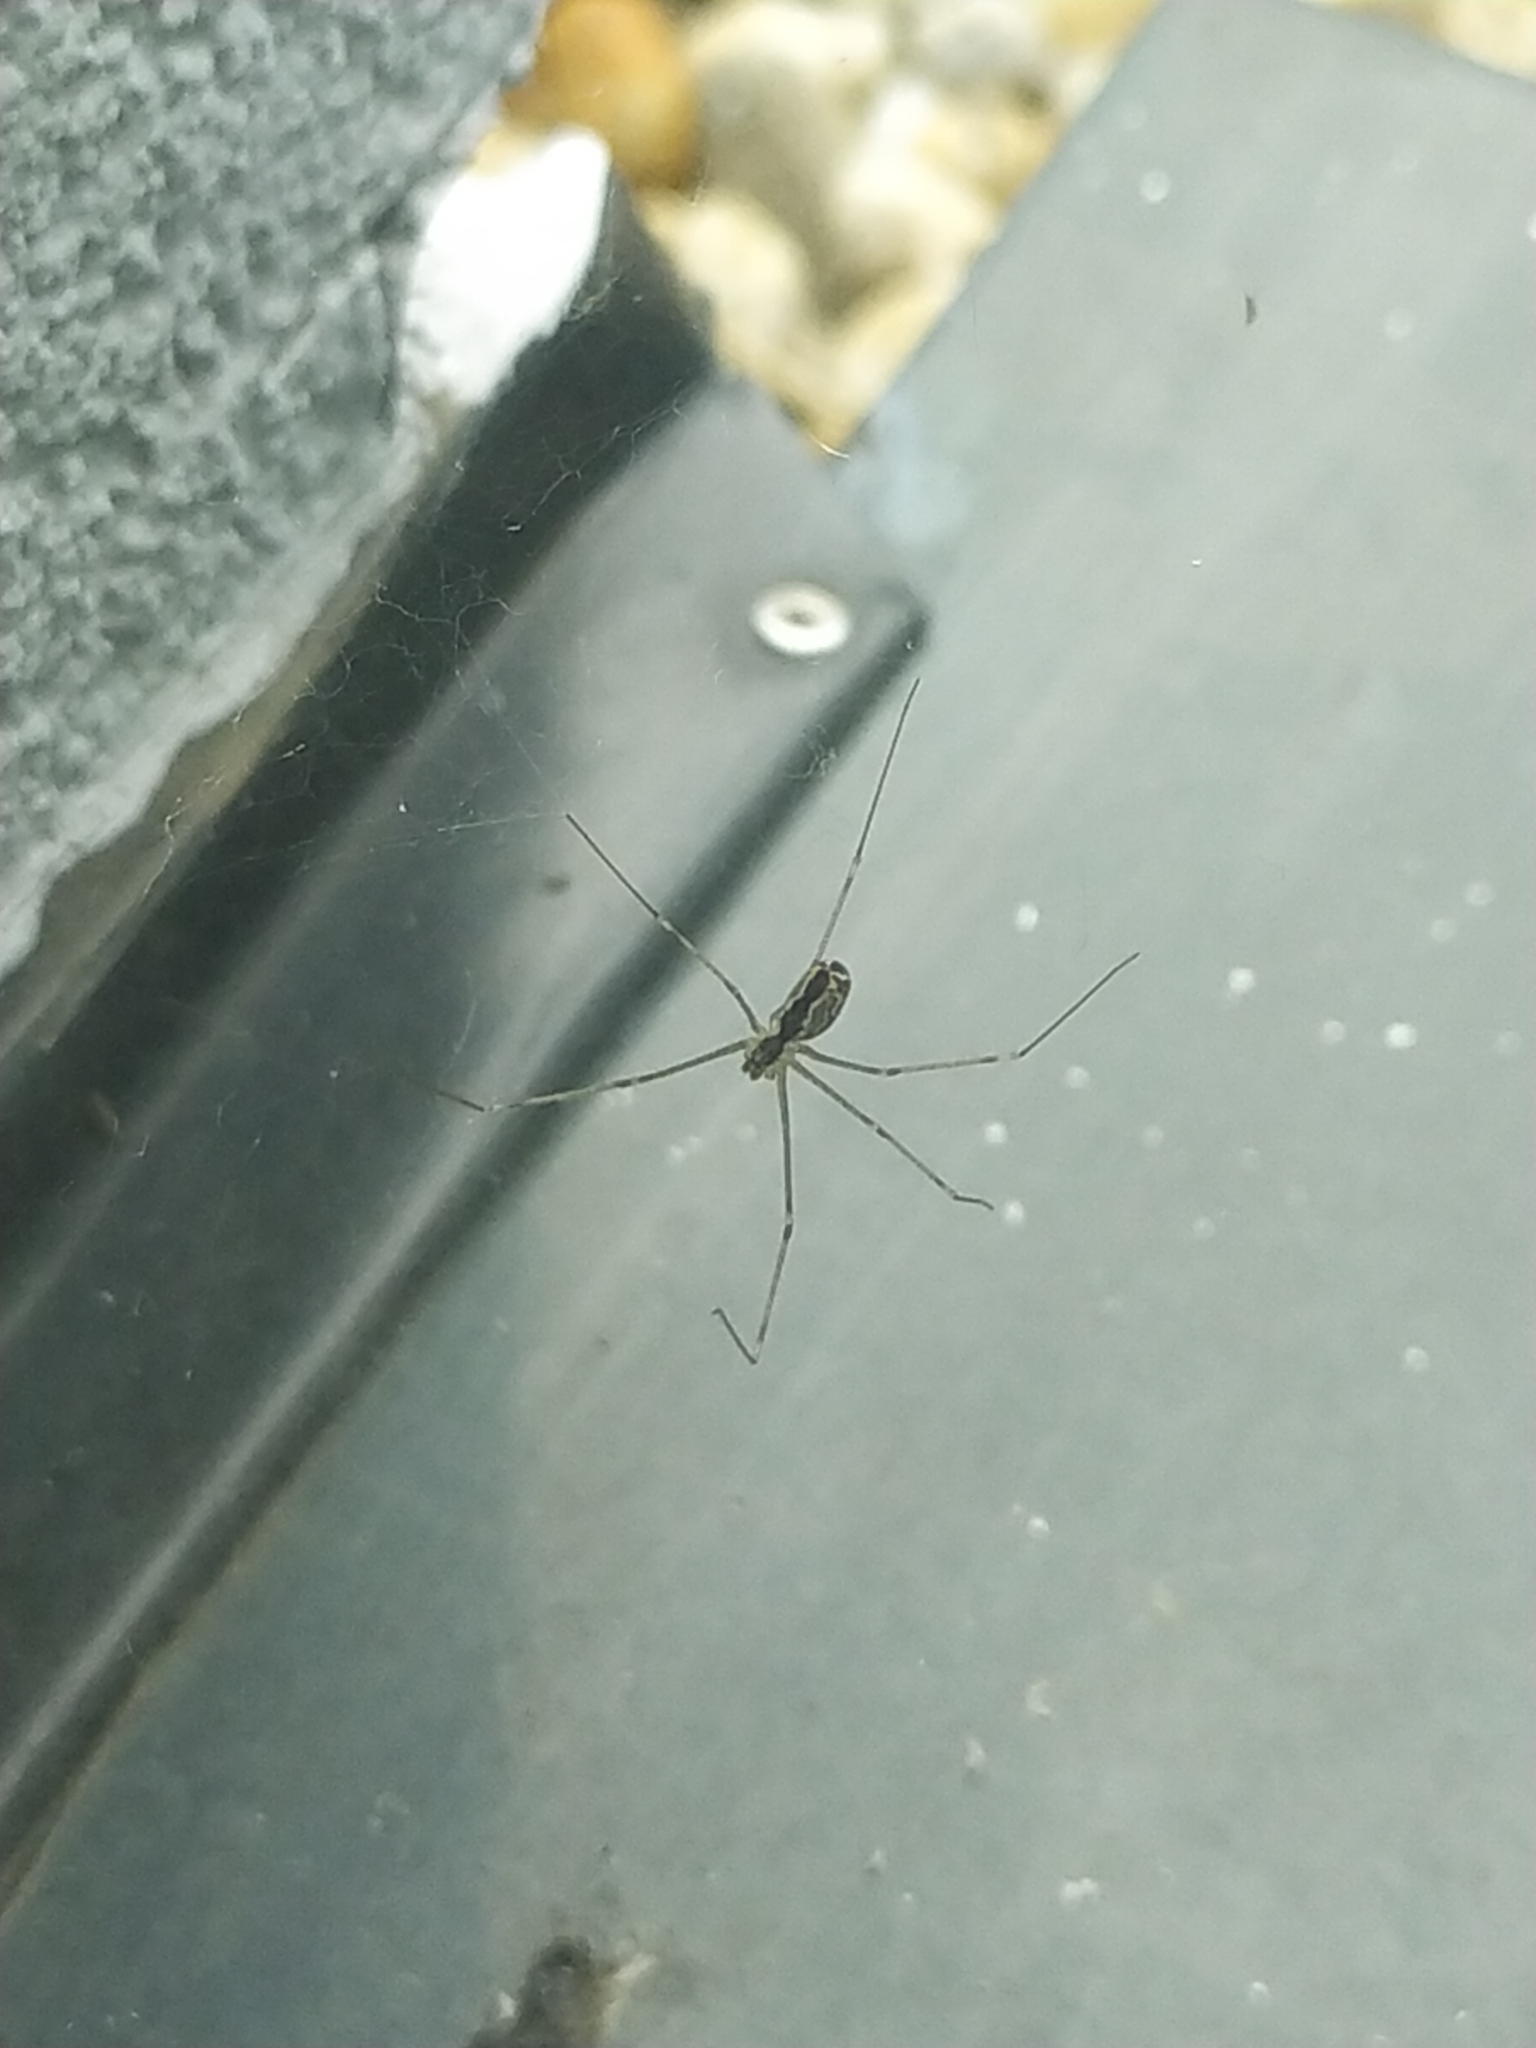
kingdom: Animalia
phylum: Arthropoda
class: Arachnida
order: Araneae
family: Pholcidae
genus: Holocnemus
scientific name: Holocnemus pluchei
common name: Marbled cellar spider
